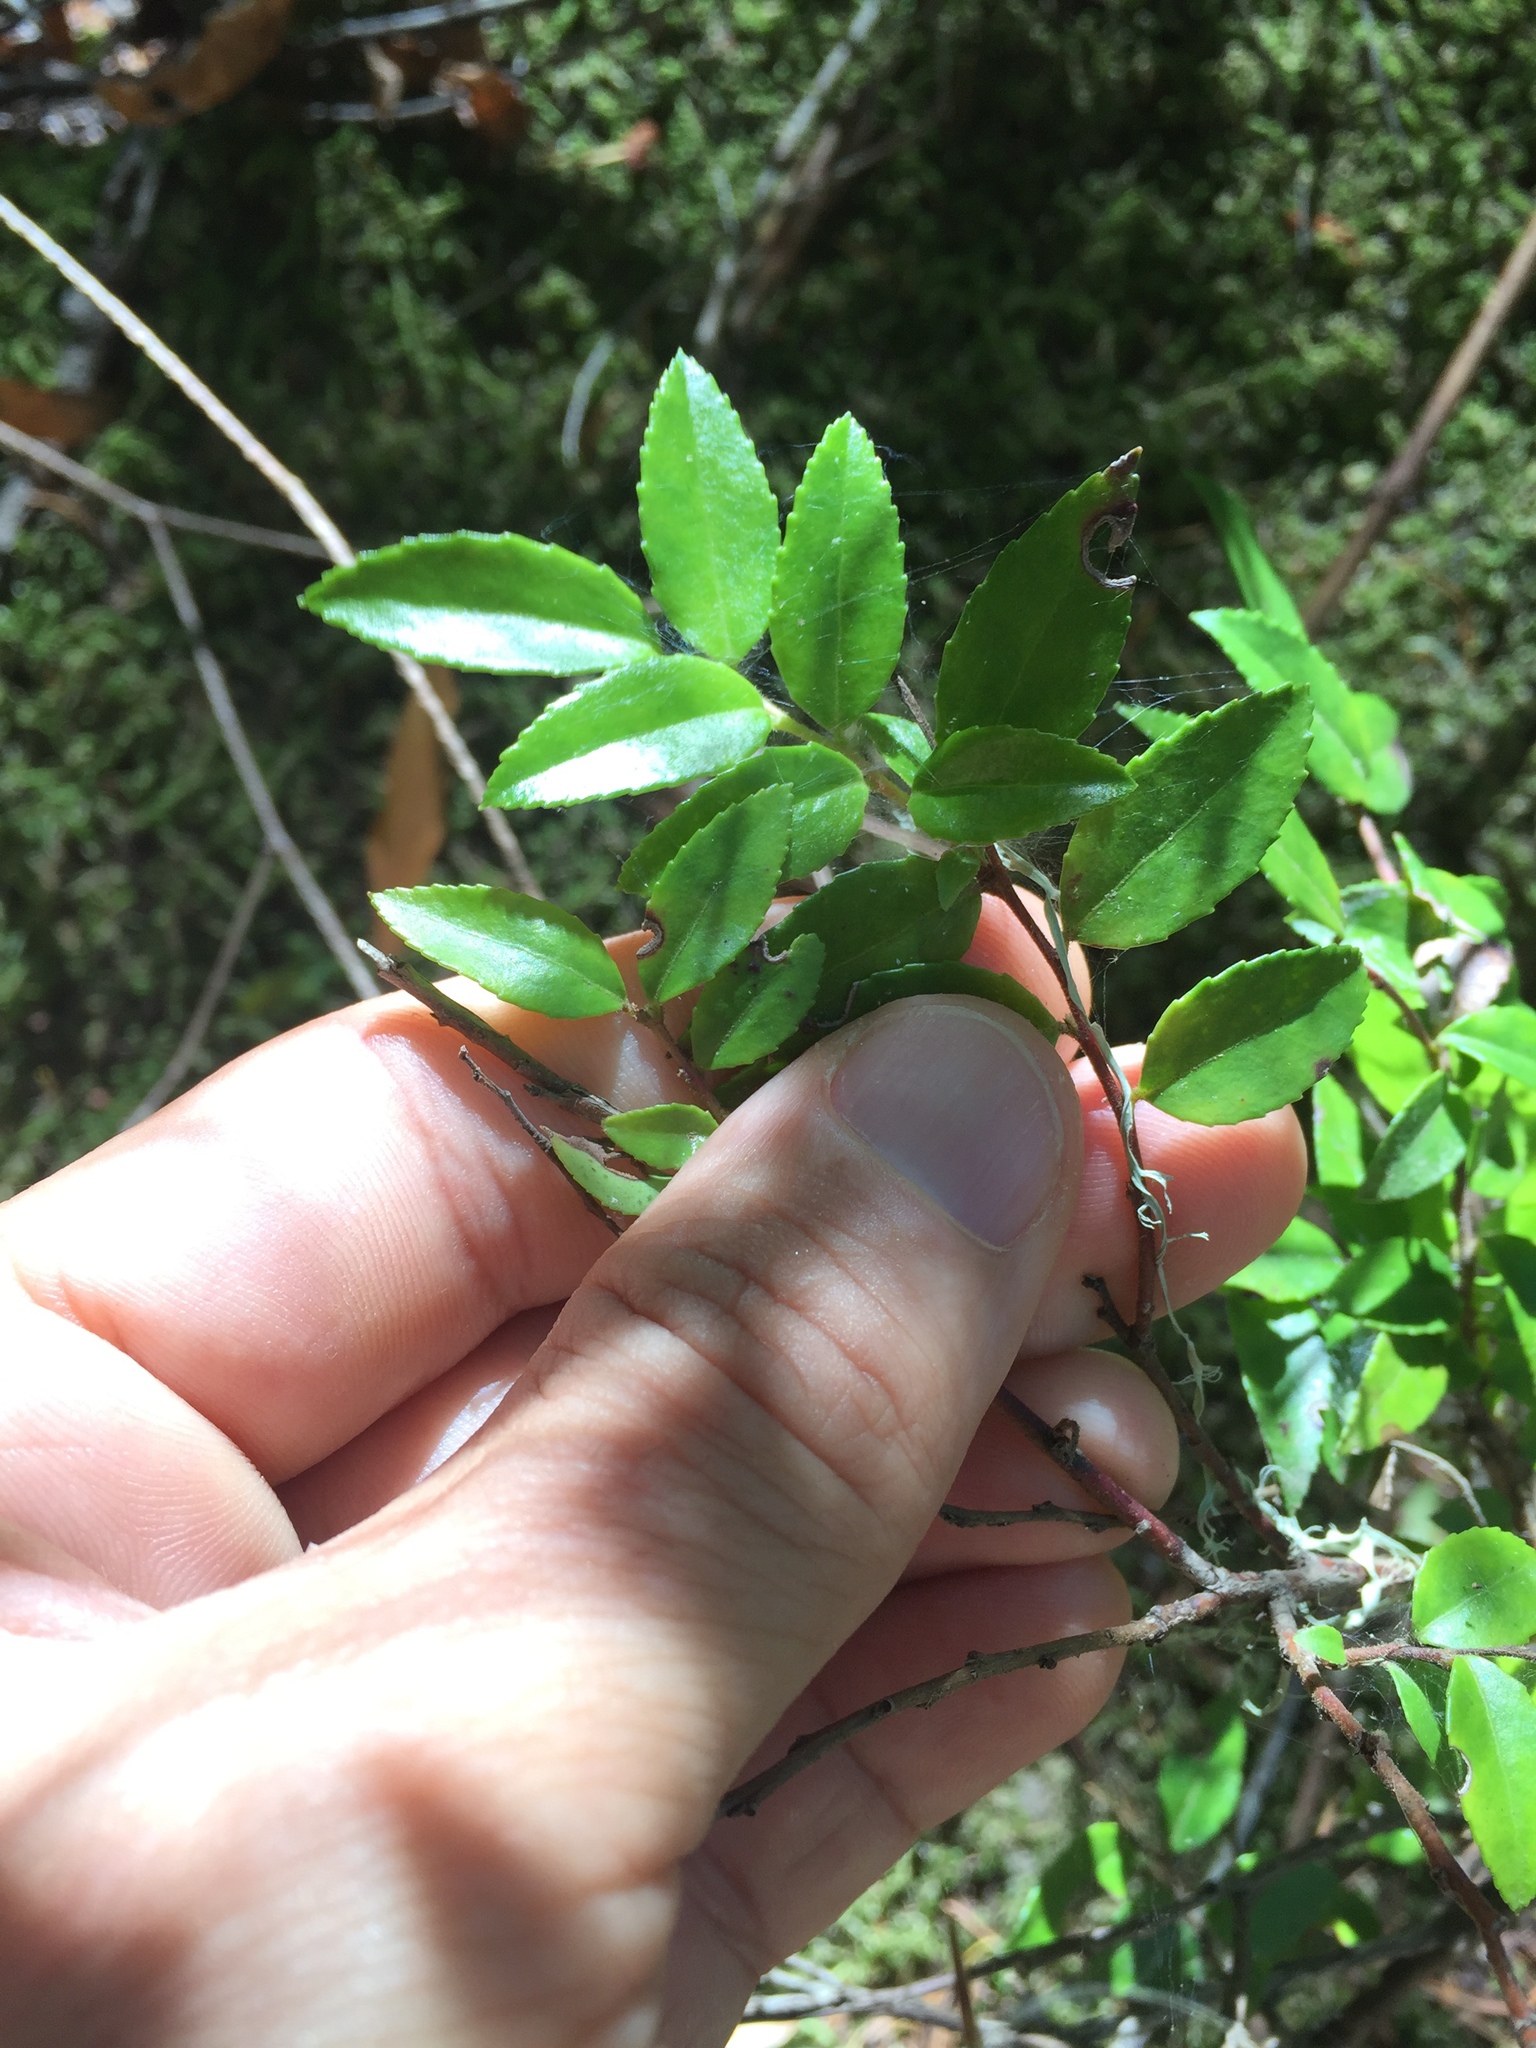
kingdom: Plantae
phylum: Tracheophyta
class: Magnoliopsida
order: Ericales
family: Ericaceae
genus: Vaccinium
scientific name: Vaccinium ovatum
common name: California-huckleberry
